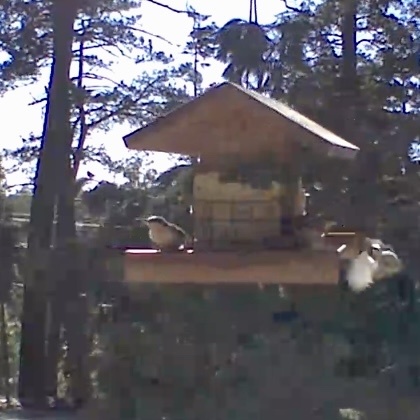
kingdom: Animalia
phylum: Chordata
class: Aves
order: Passeriformes
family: Sittidae
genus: Sitta
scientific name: Sitta pygmaea
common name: Pygmy nuthatch
